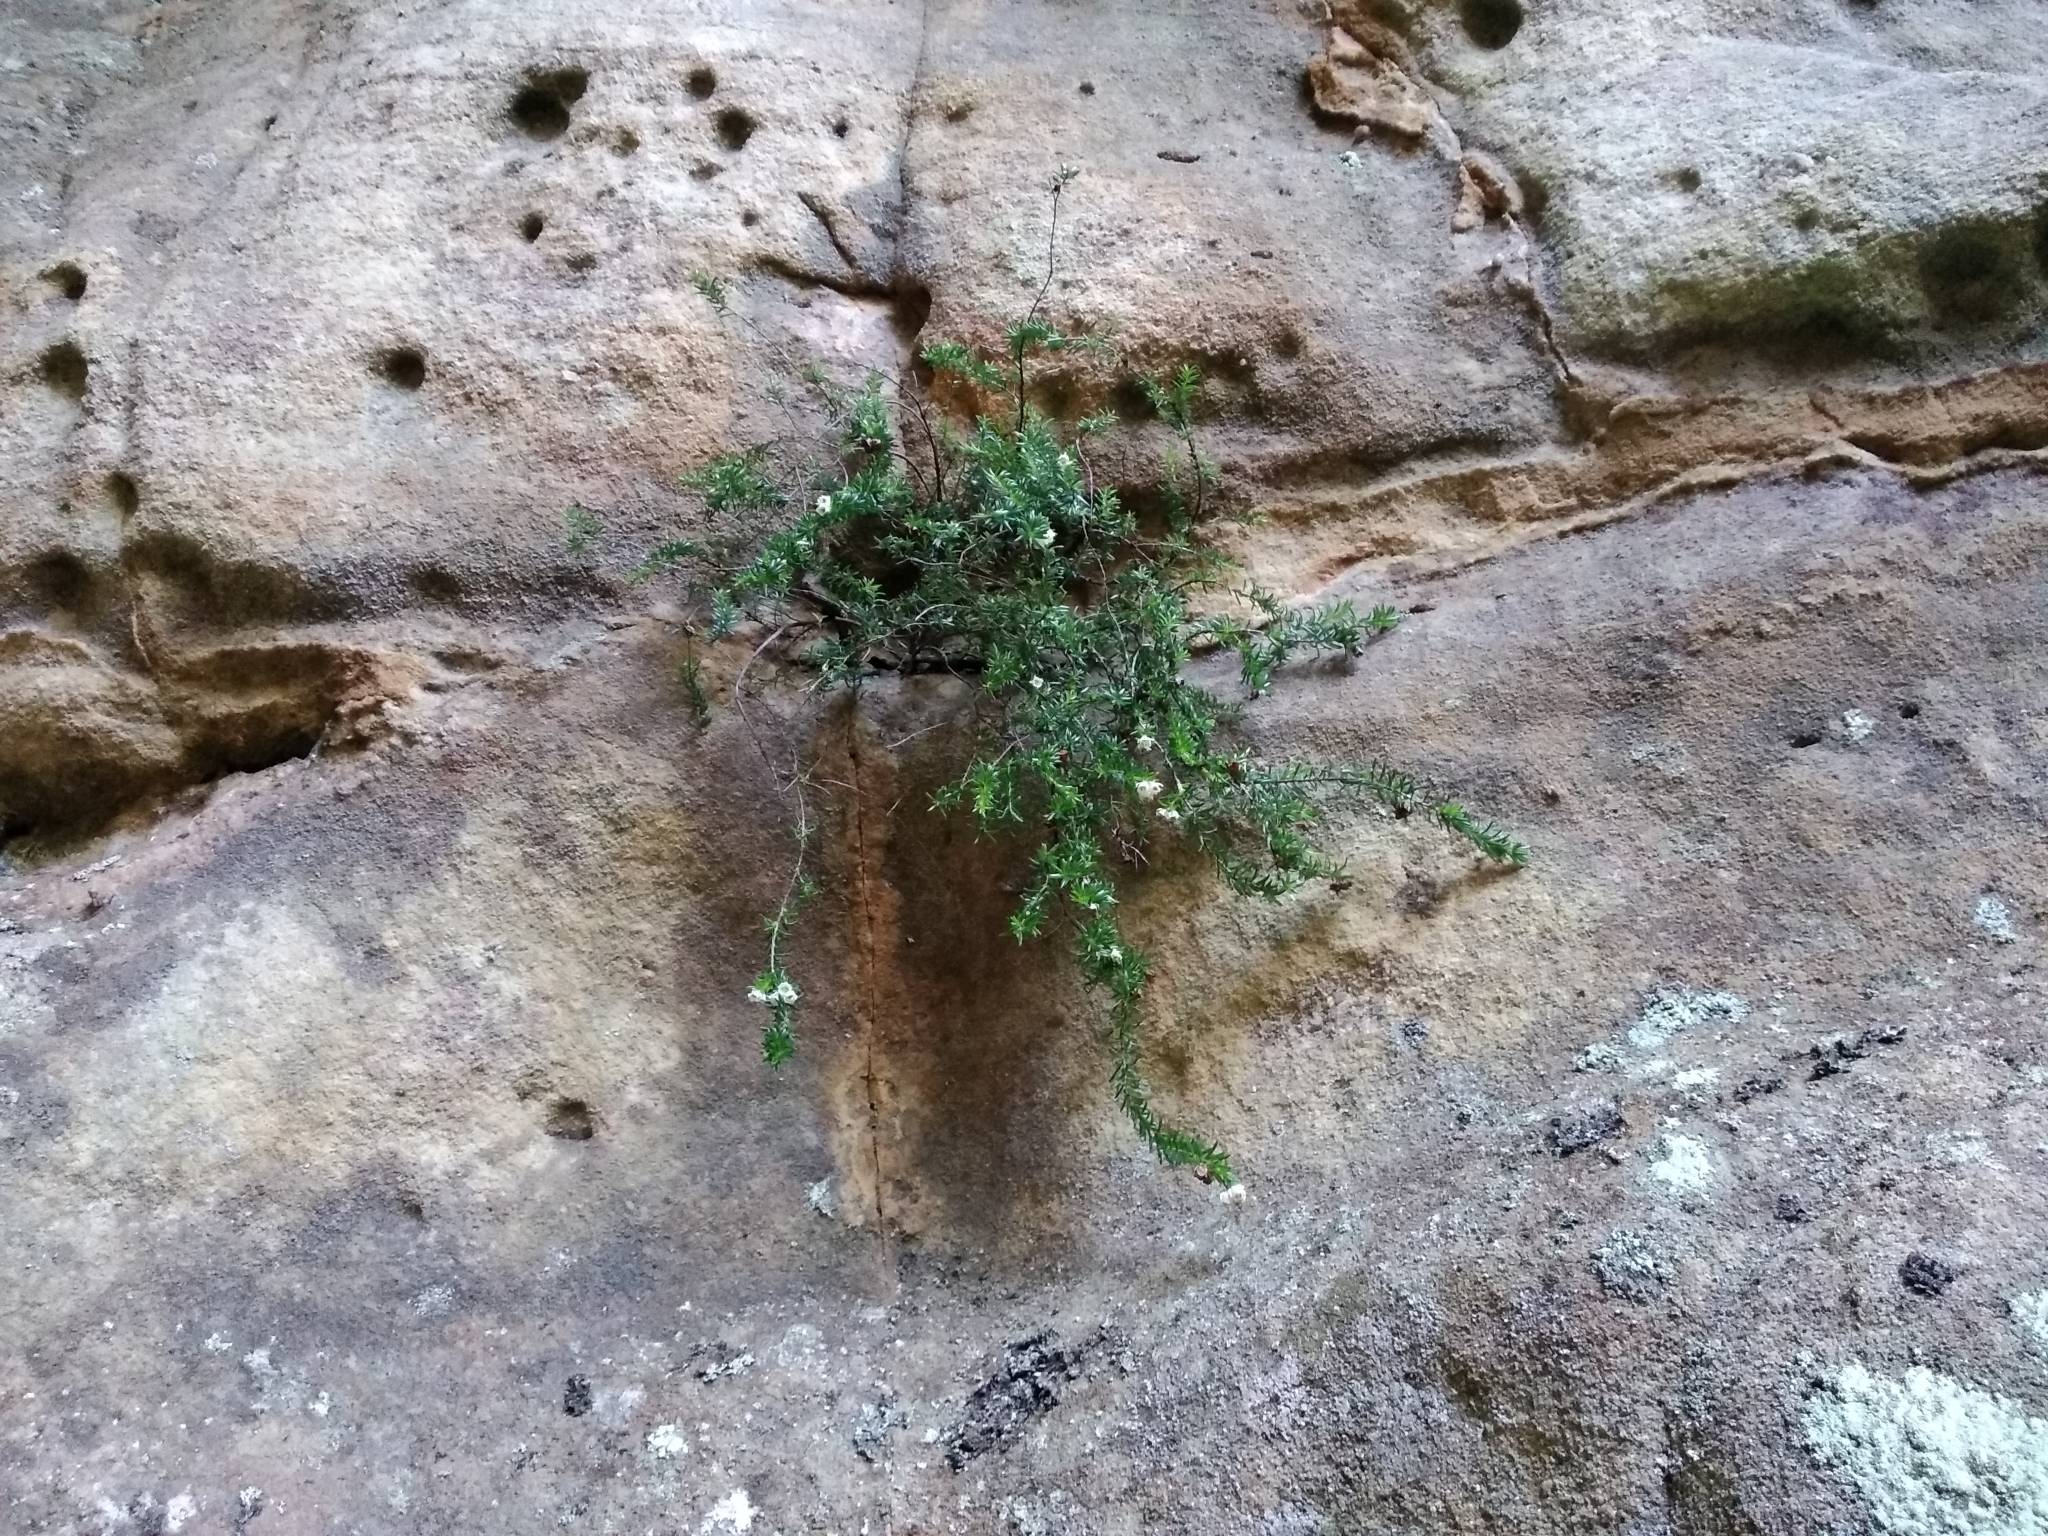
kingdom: Plantae
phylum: Tracheophyta
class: Magnoliopsida
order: Ericales
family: Ericaceae
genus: Erica
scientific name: Erica depressa
